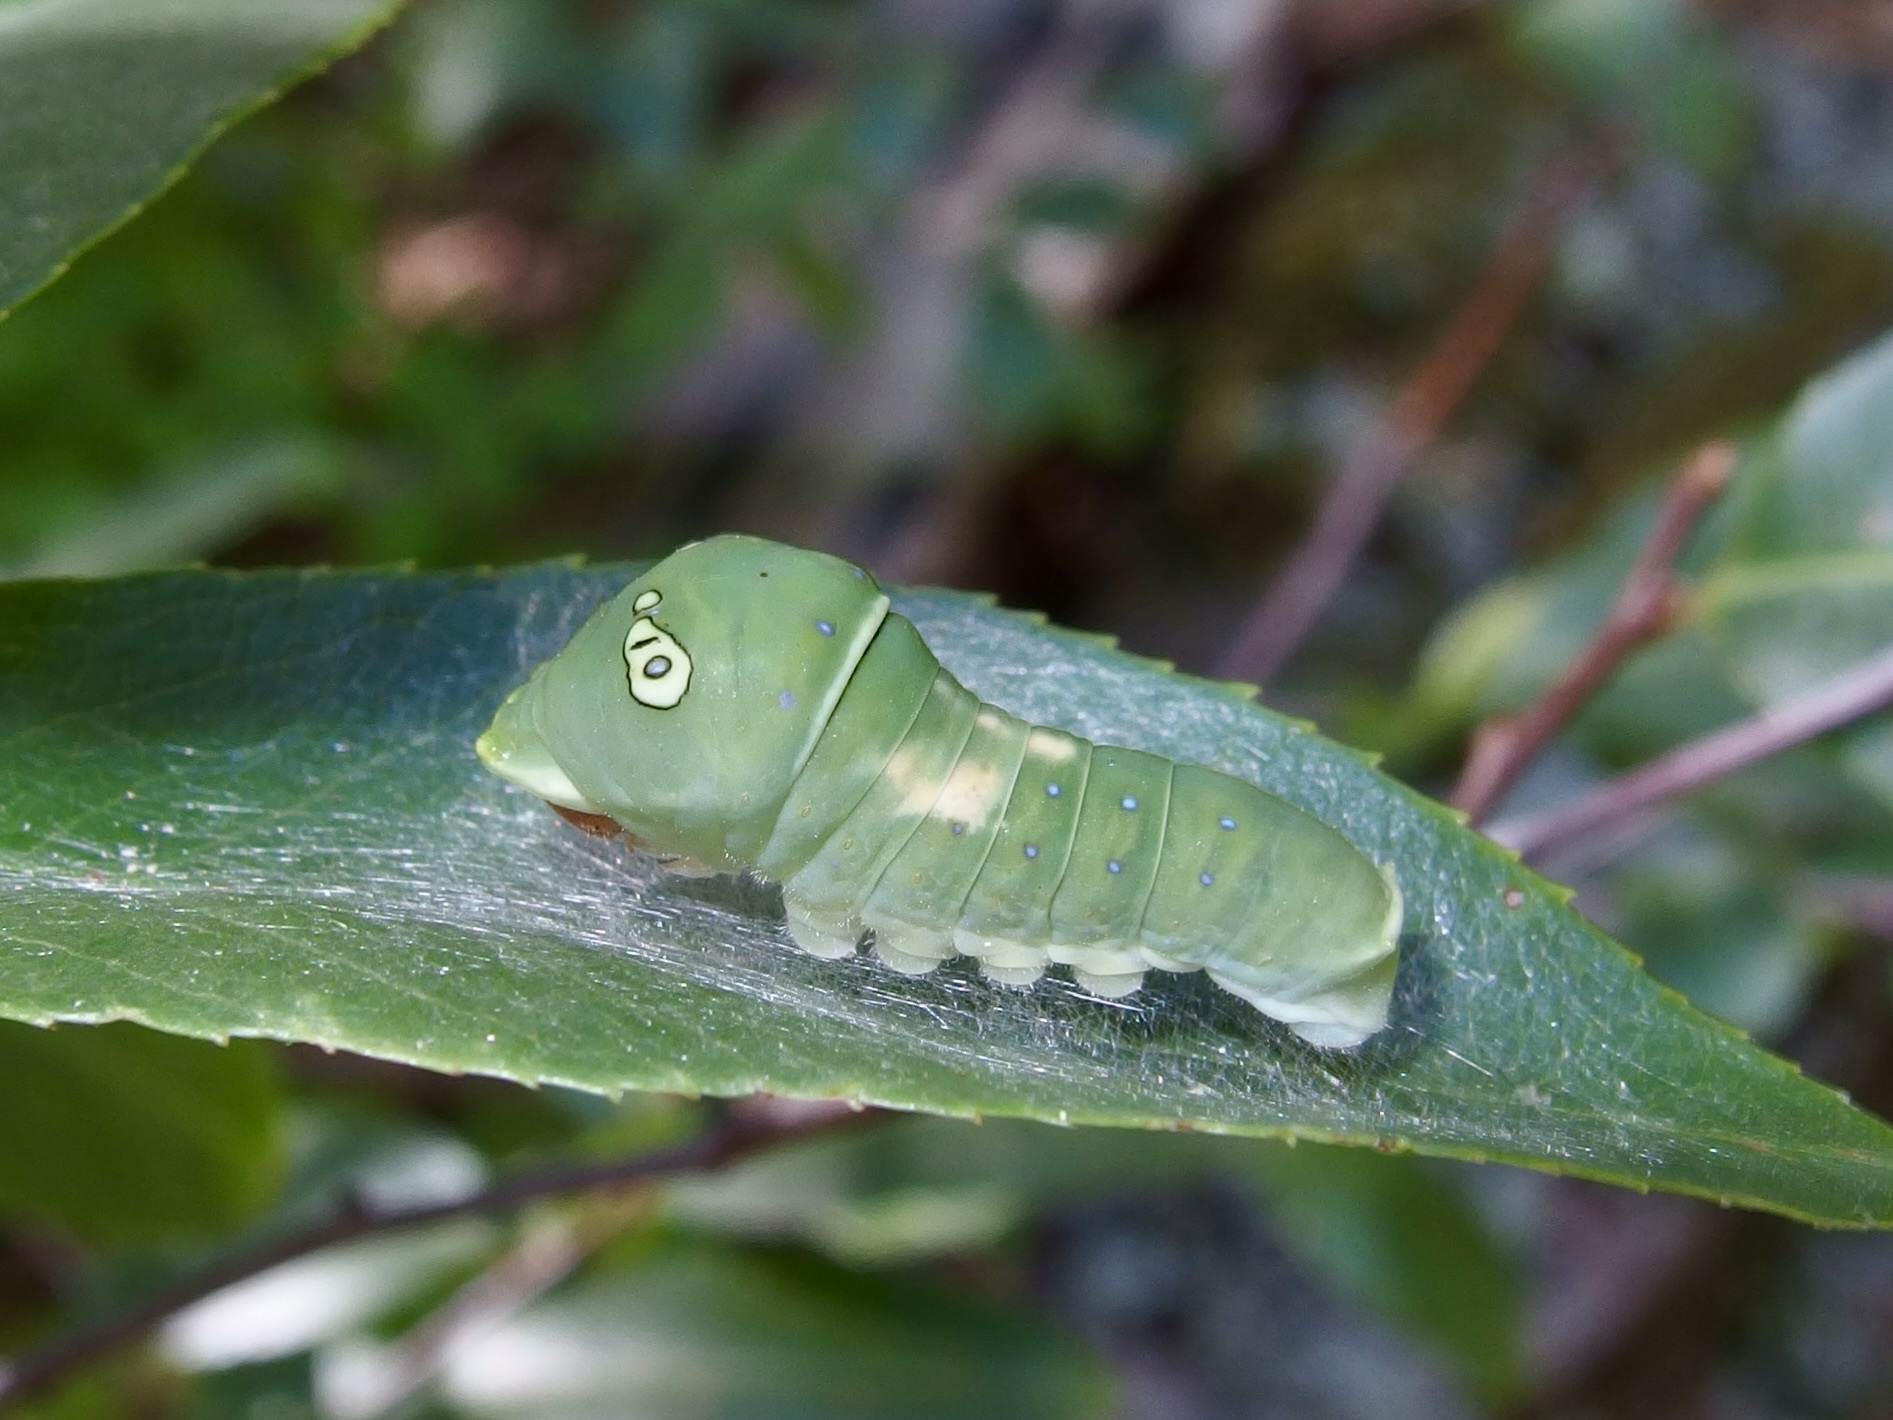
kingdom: Animalia
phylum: Arthropoda
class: Insecta
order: Lepidoptera
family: Papilionidae
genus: Papilio
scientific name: Papilio multicaudata
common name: Two-tailed tiger swallowtail
